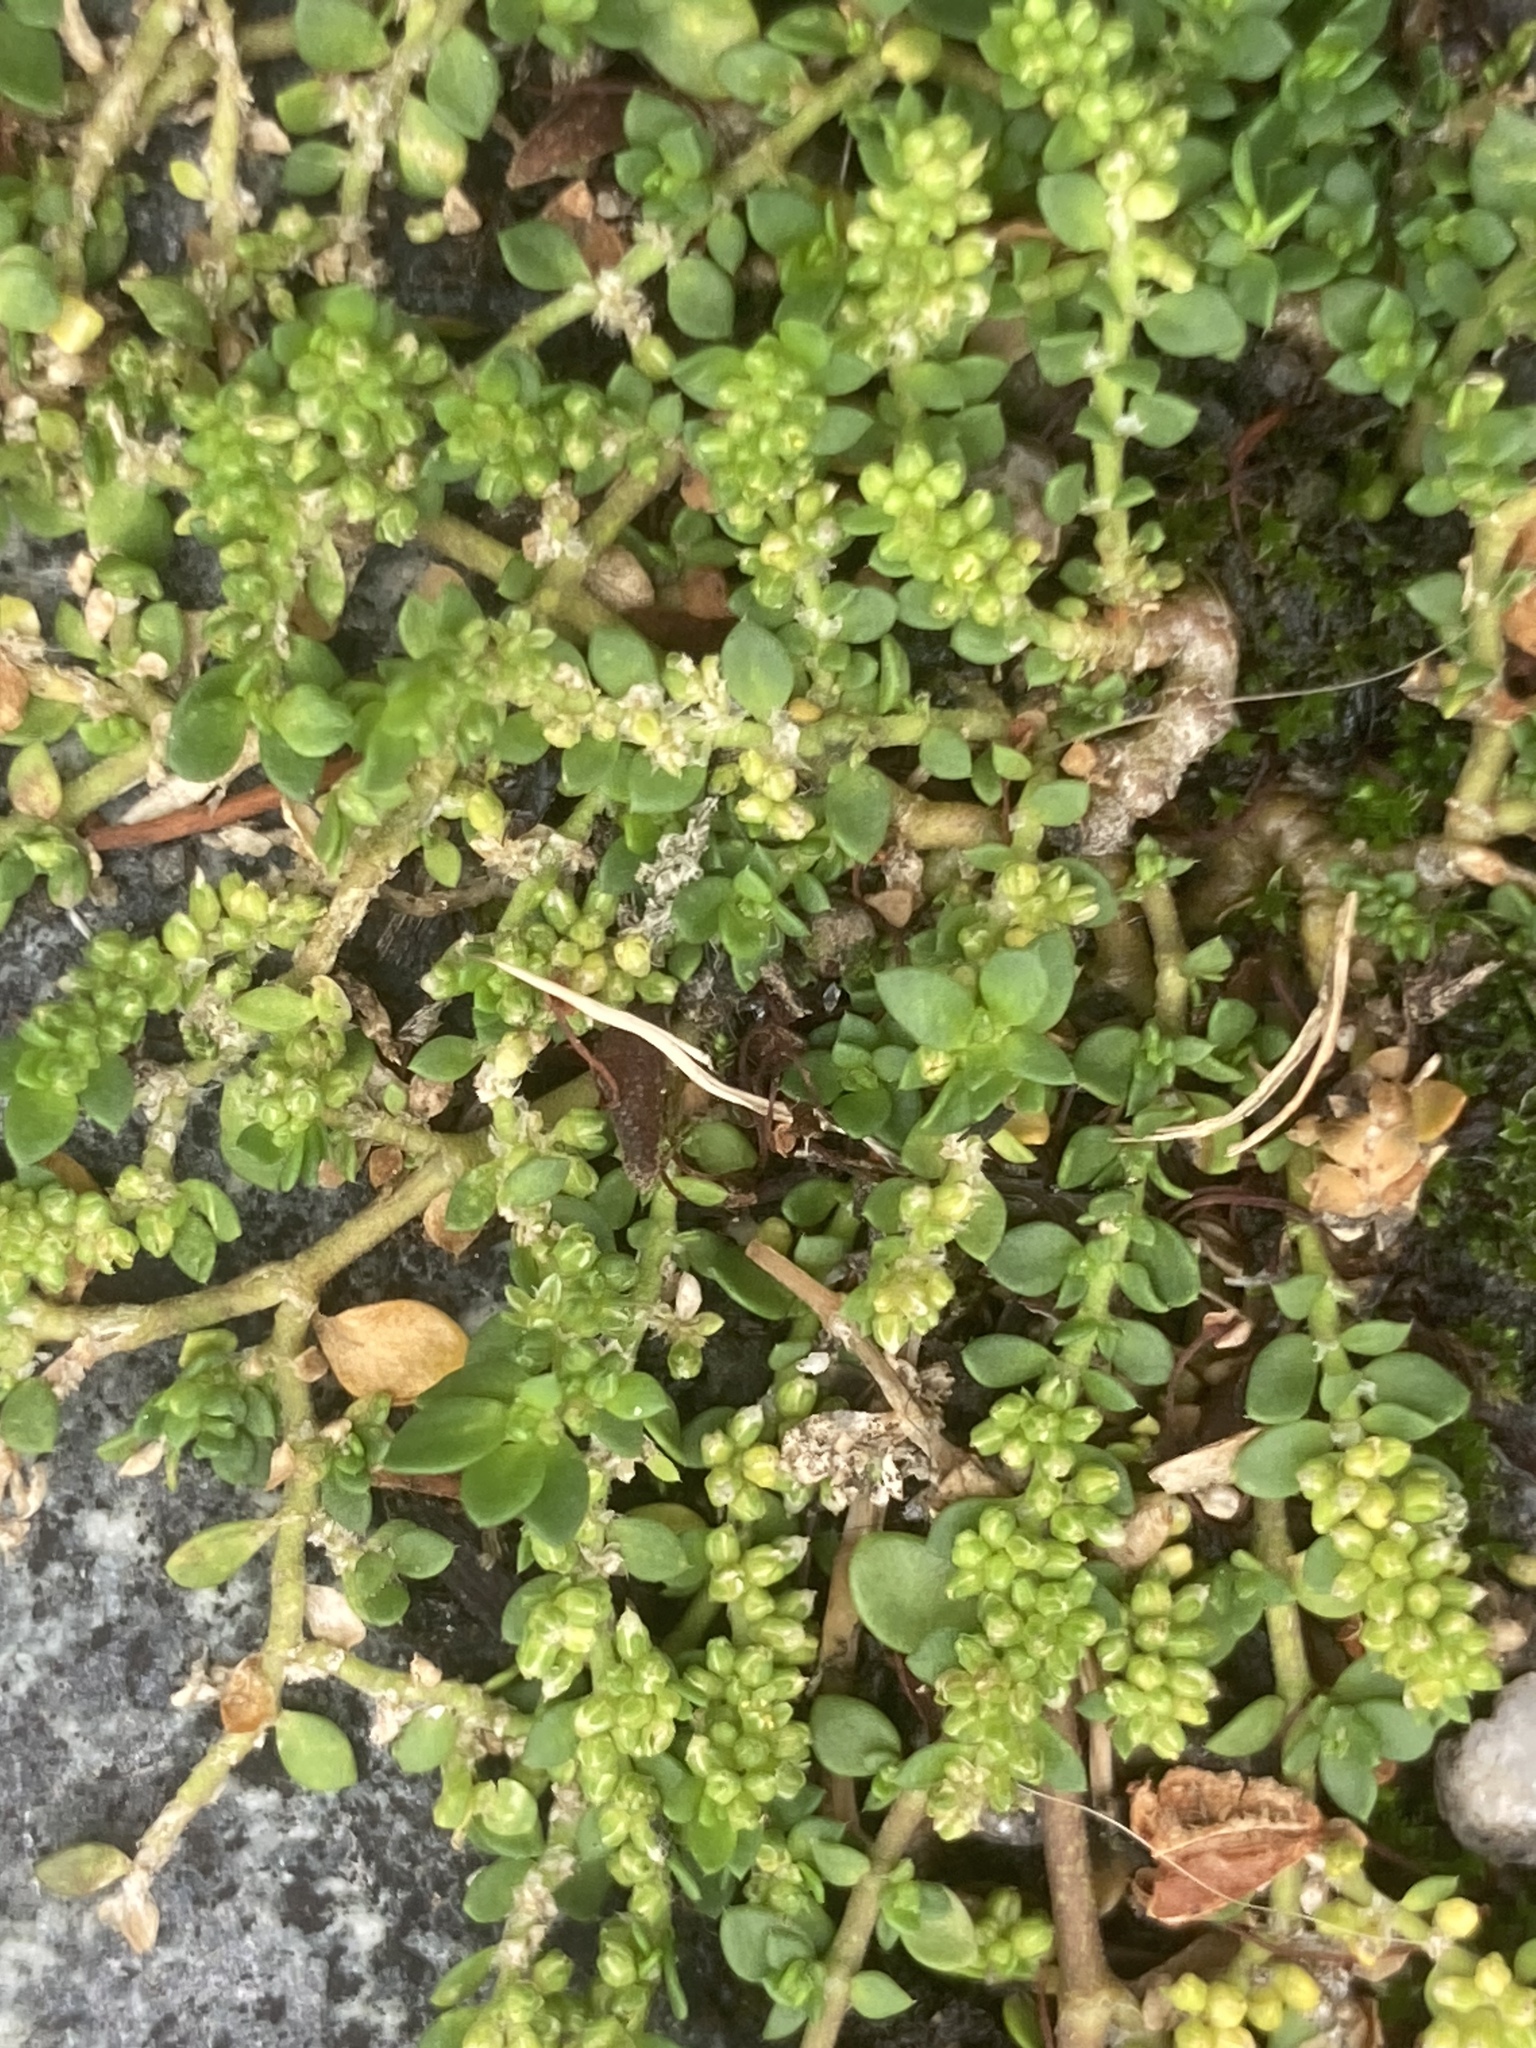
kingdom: Plantae
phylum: Tracheophyta
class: Magnoliopsida
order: Caryophyllales
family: Caryophyllaceae
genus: Herniaria
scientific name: Herniaria glabra
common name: Smooth rupturewort
